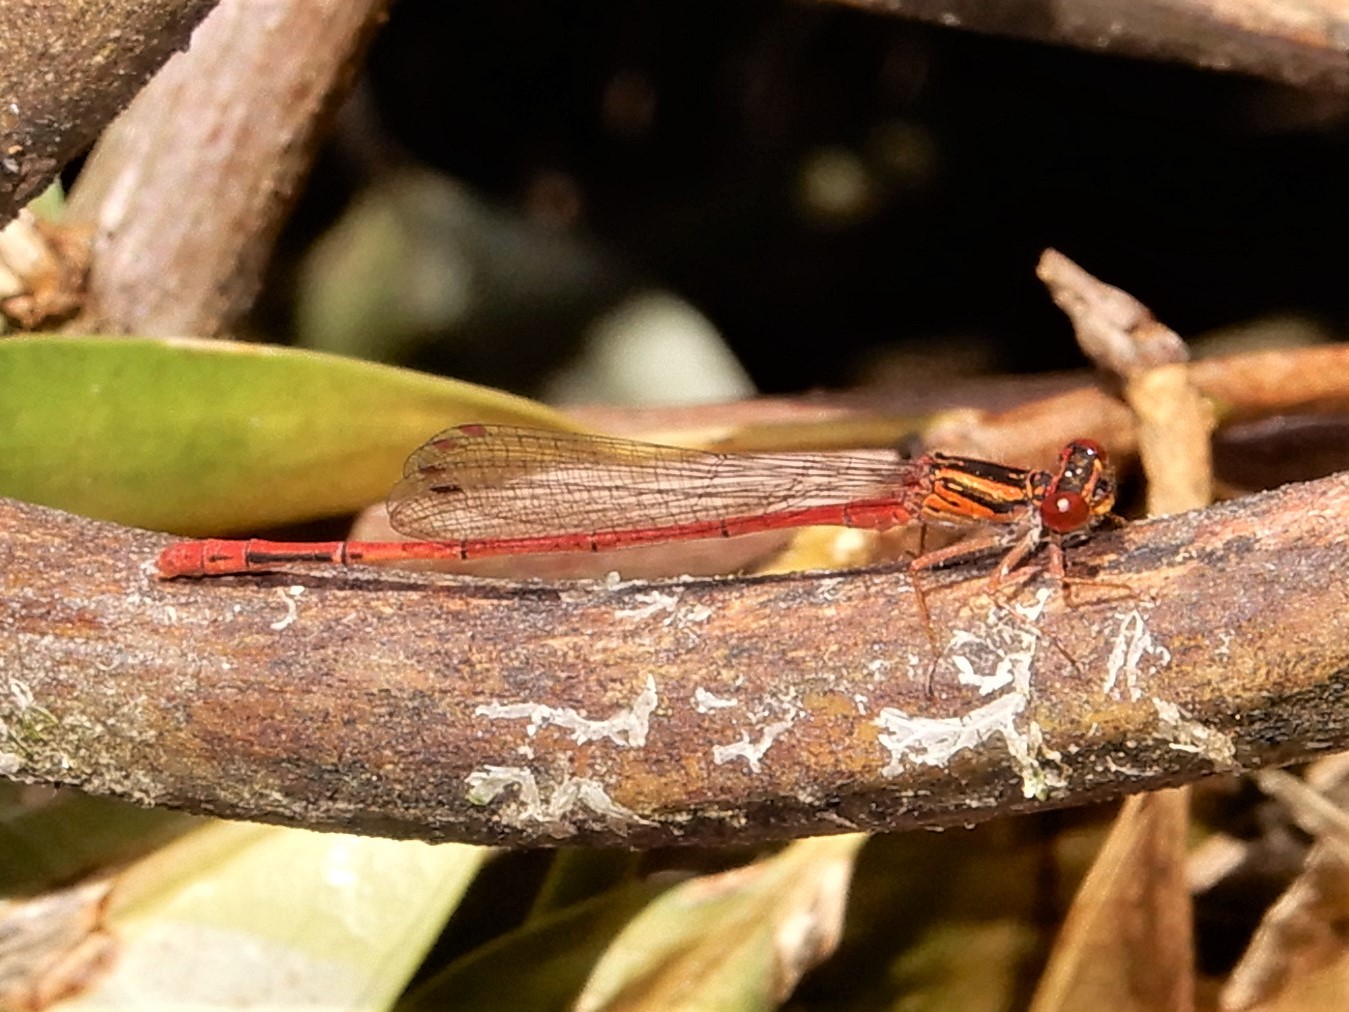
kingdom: Animalia
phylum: Arthropoda
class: Insecta
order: Odonata
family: Coenagrionidae
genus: Xanthocnemis
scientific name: Xanthocnemis zealandica
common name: Common redcoat damselfly
